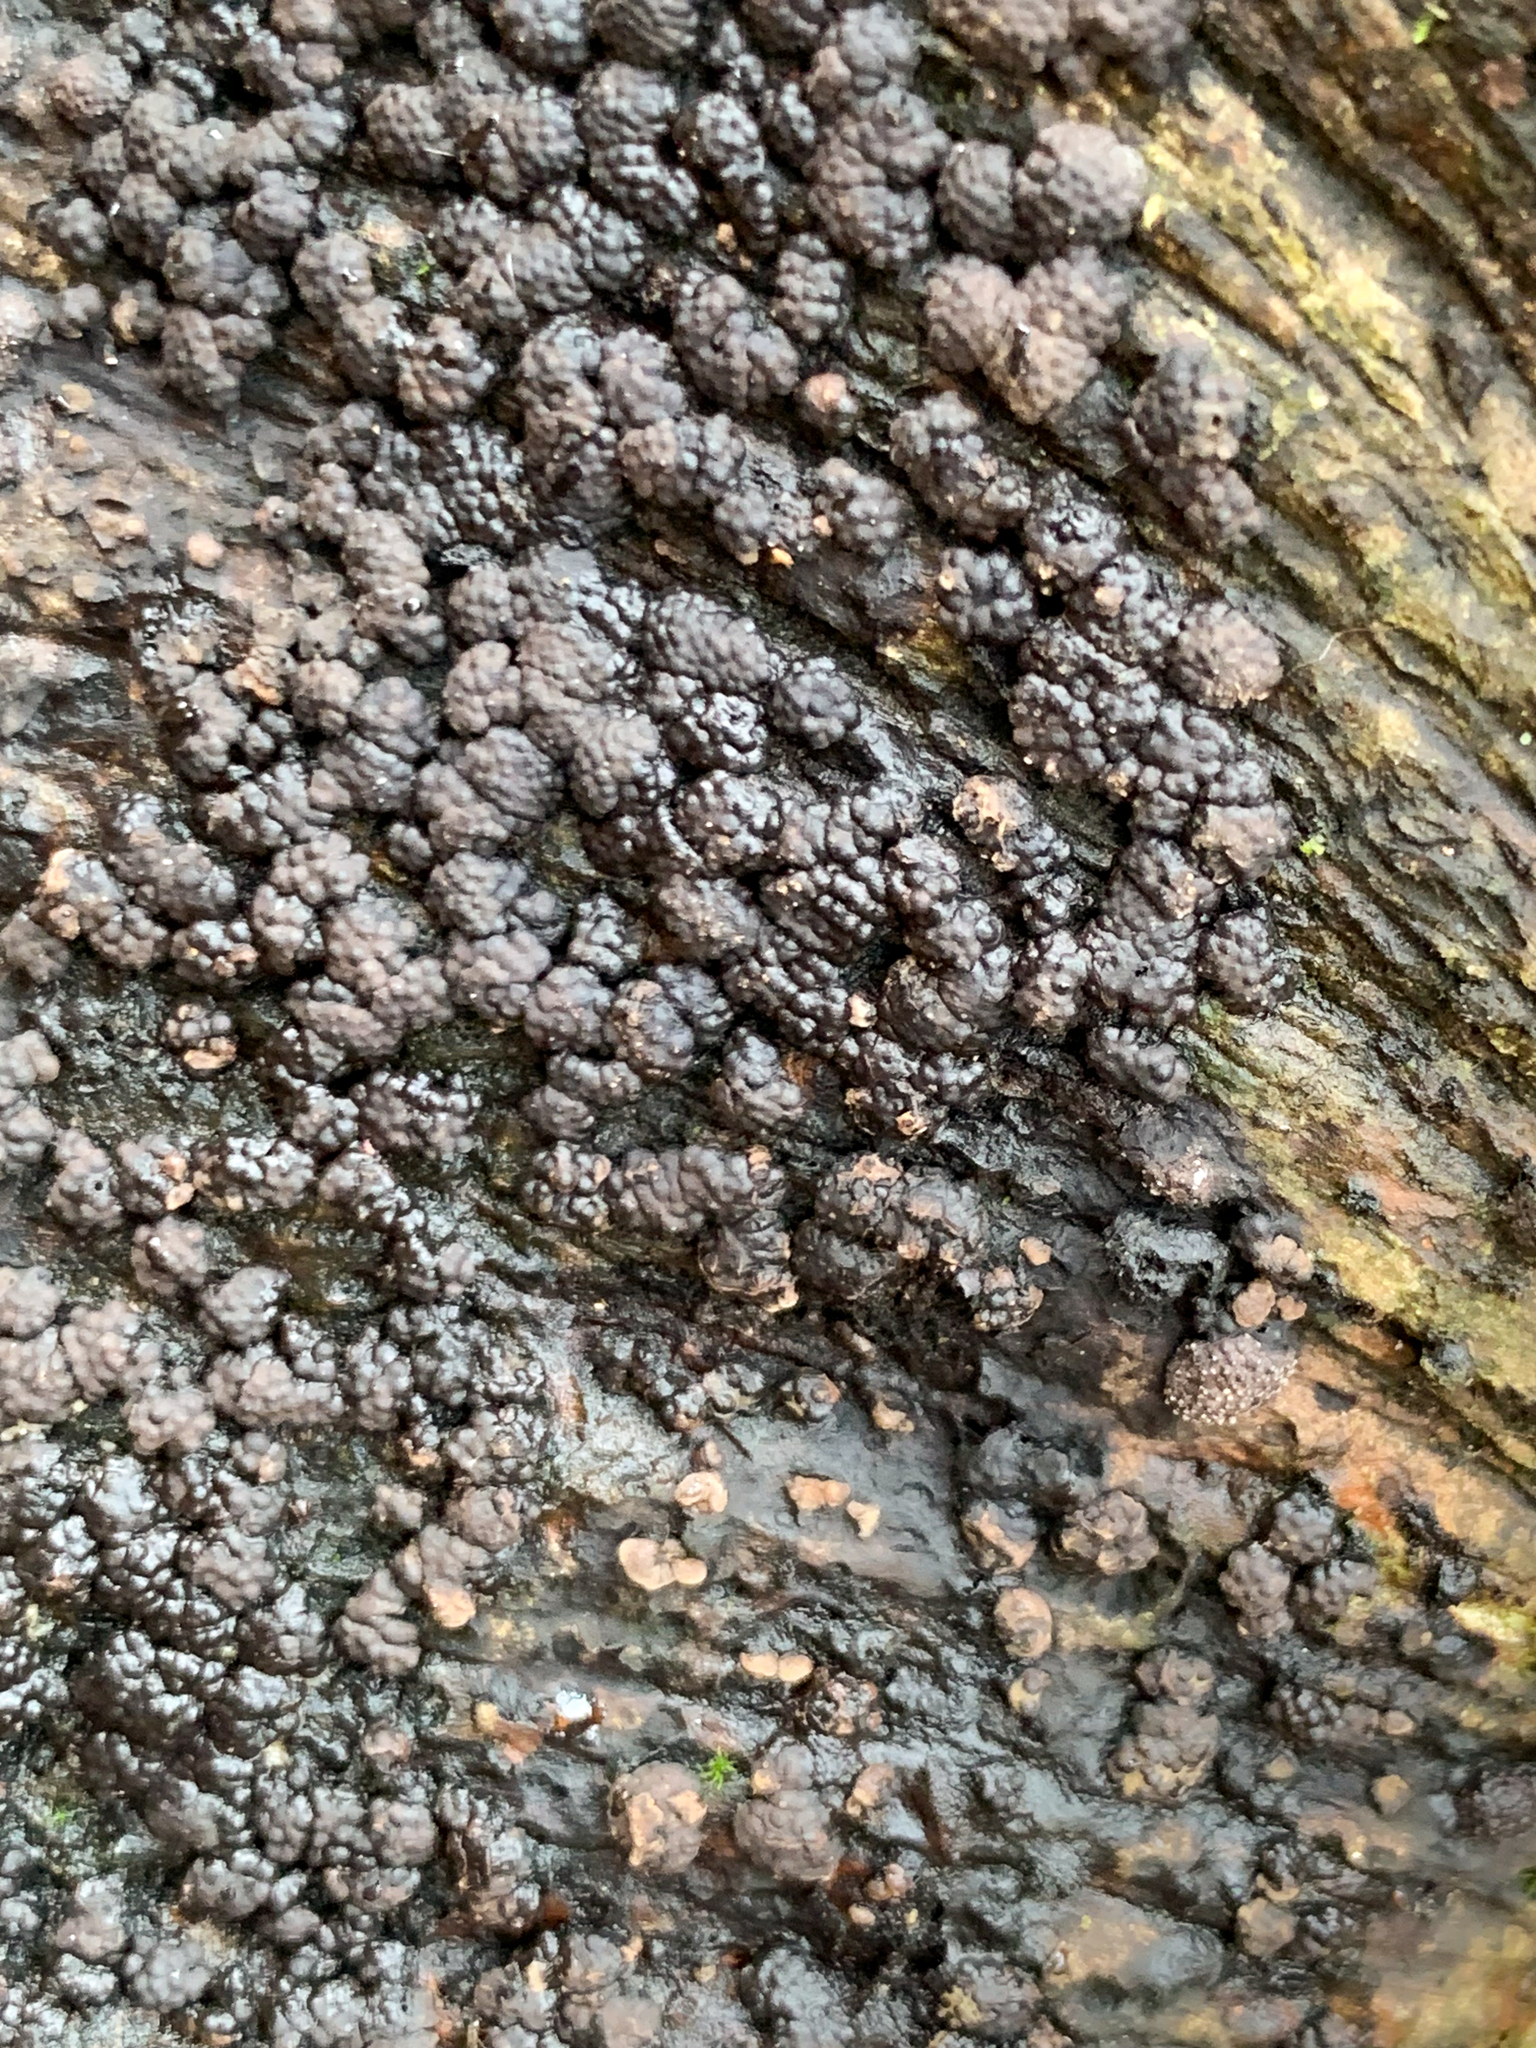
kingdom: Fungi
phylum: Ascomycota
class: Sordariomycetes
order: Xylariales
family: Hypoxylaceae
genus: Jackrogersella
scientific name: Jackrogersella cohaerens
